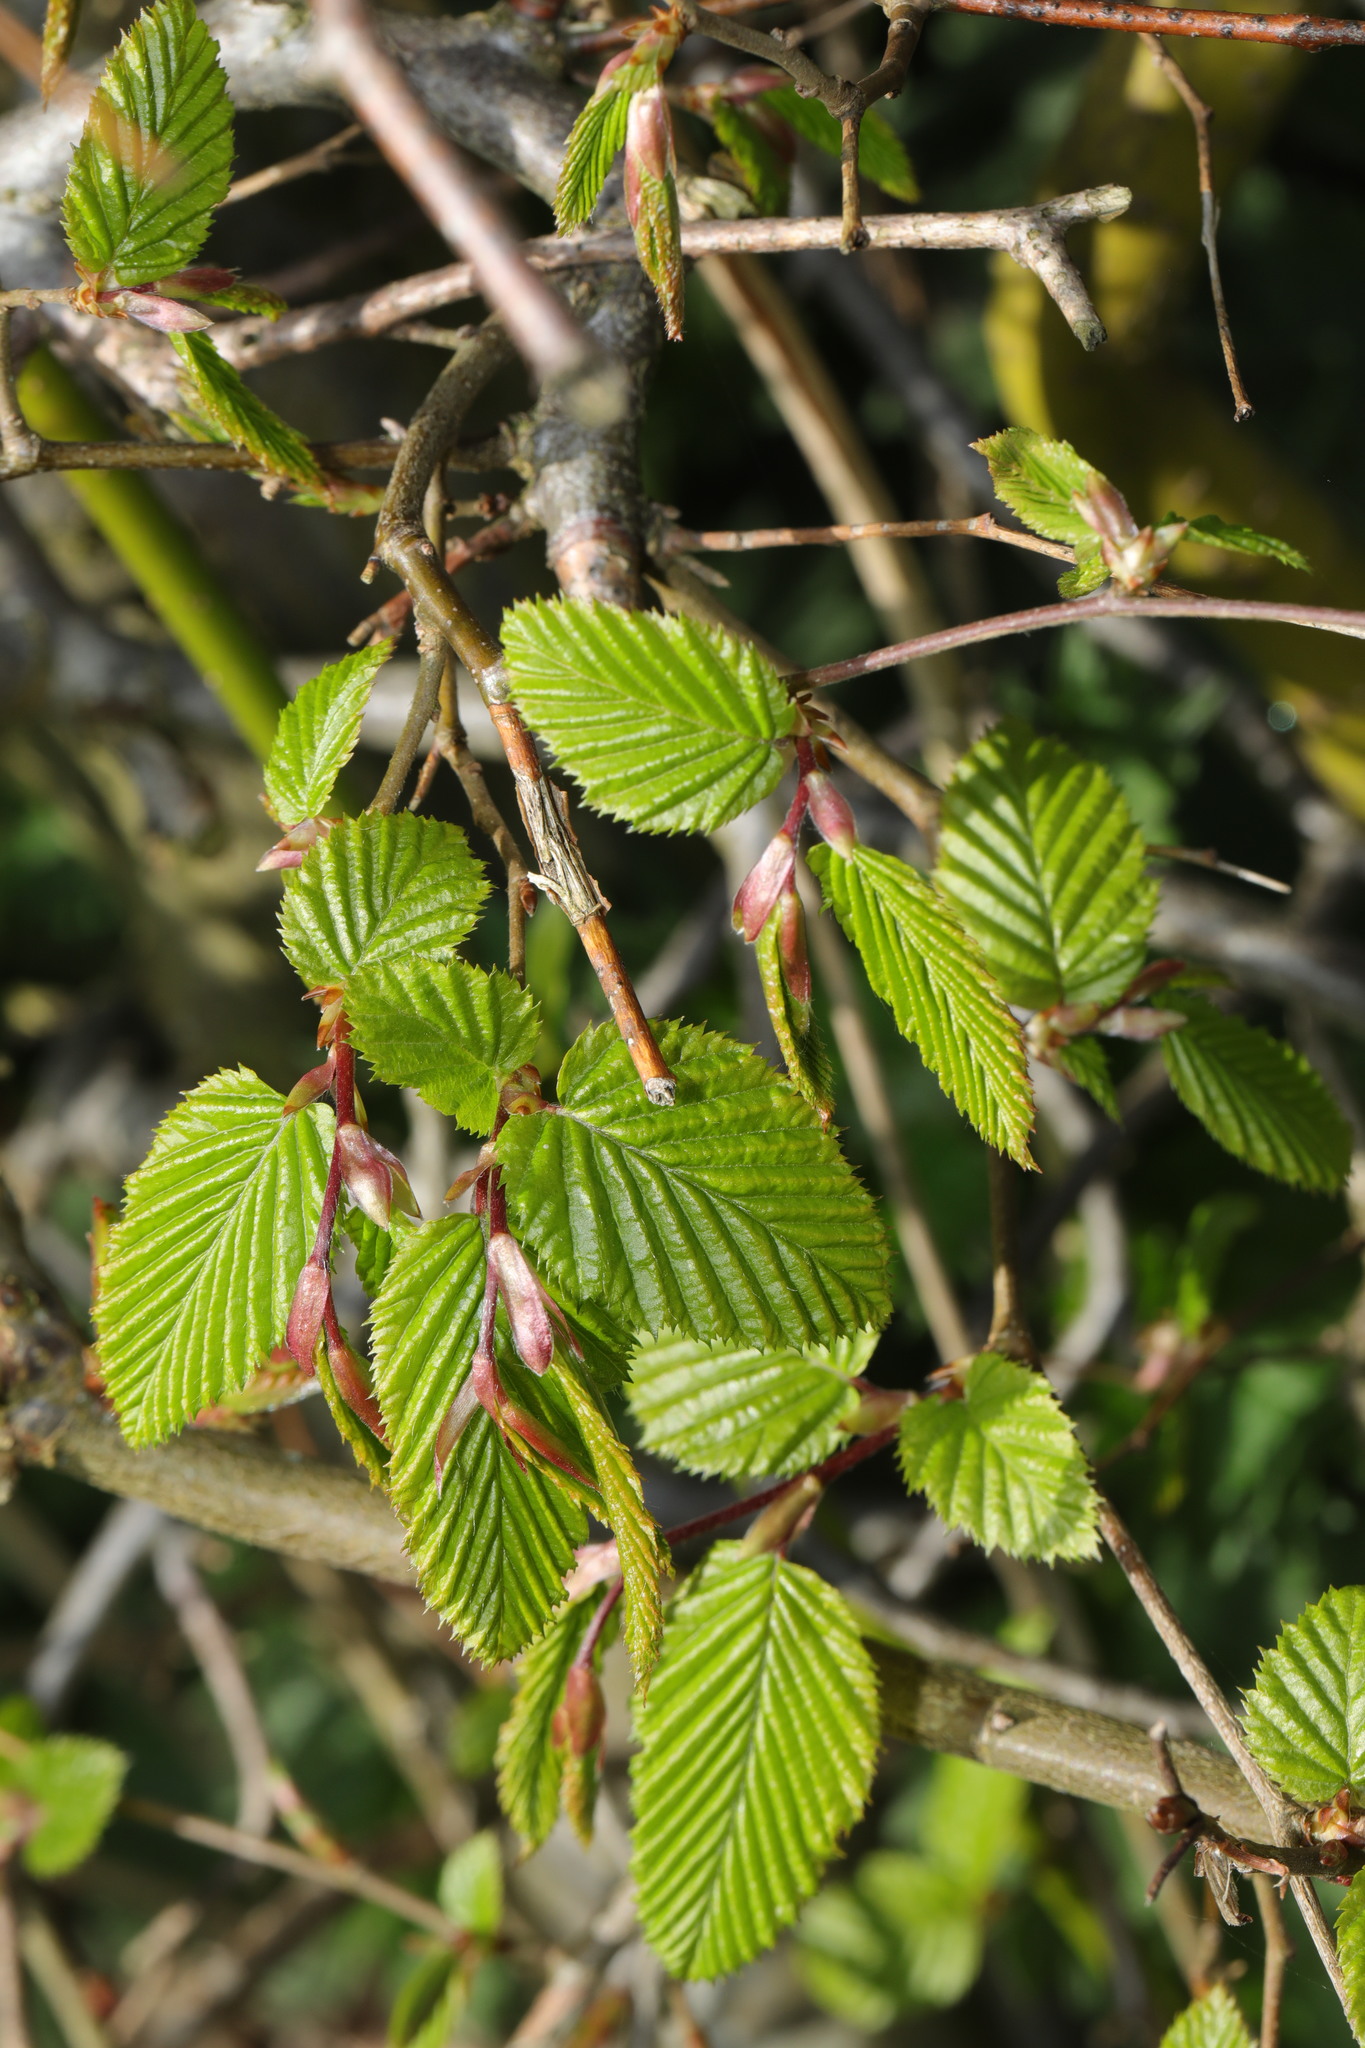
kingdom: Plantae
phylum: Tracheophyta
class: Magnoliopsida
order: Fagales
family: Betulaceae
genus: Carpinus
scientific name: Carpinus betulus
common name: Hornbeam
